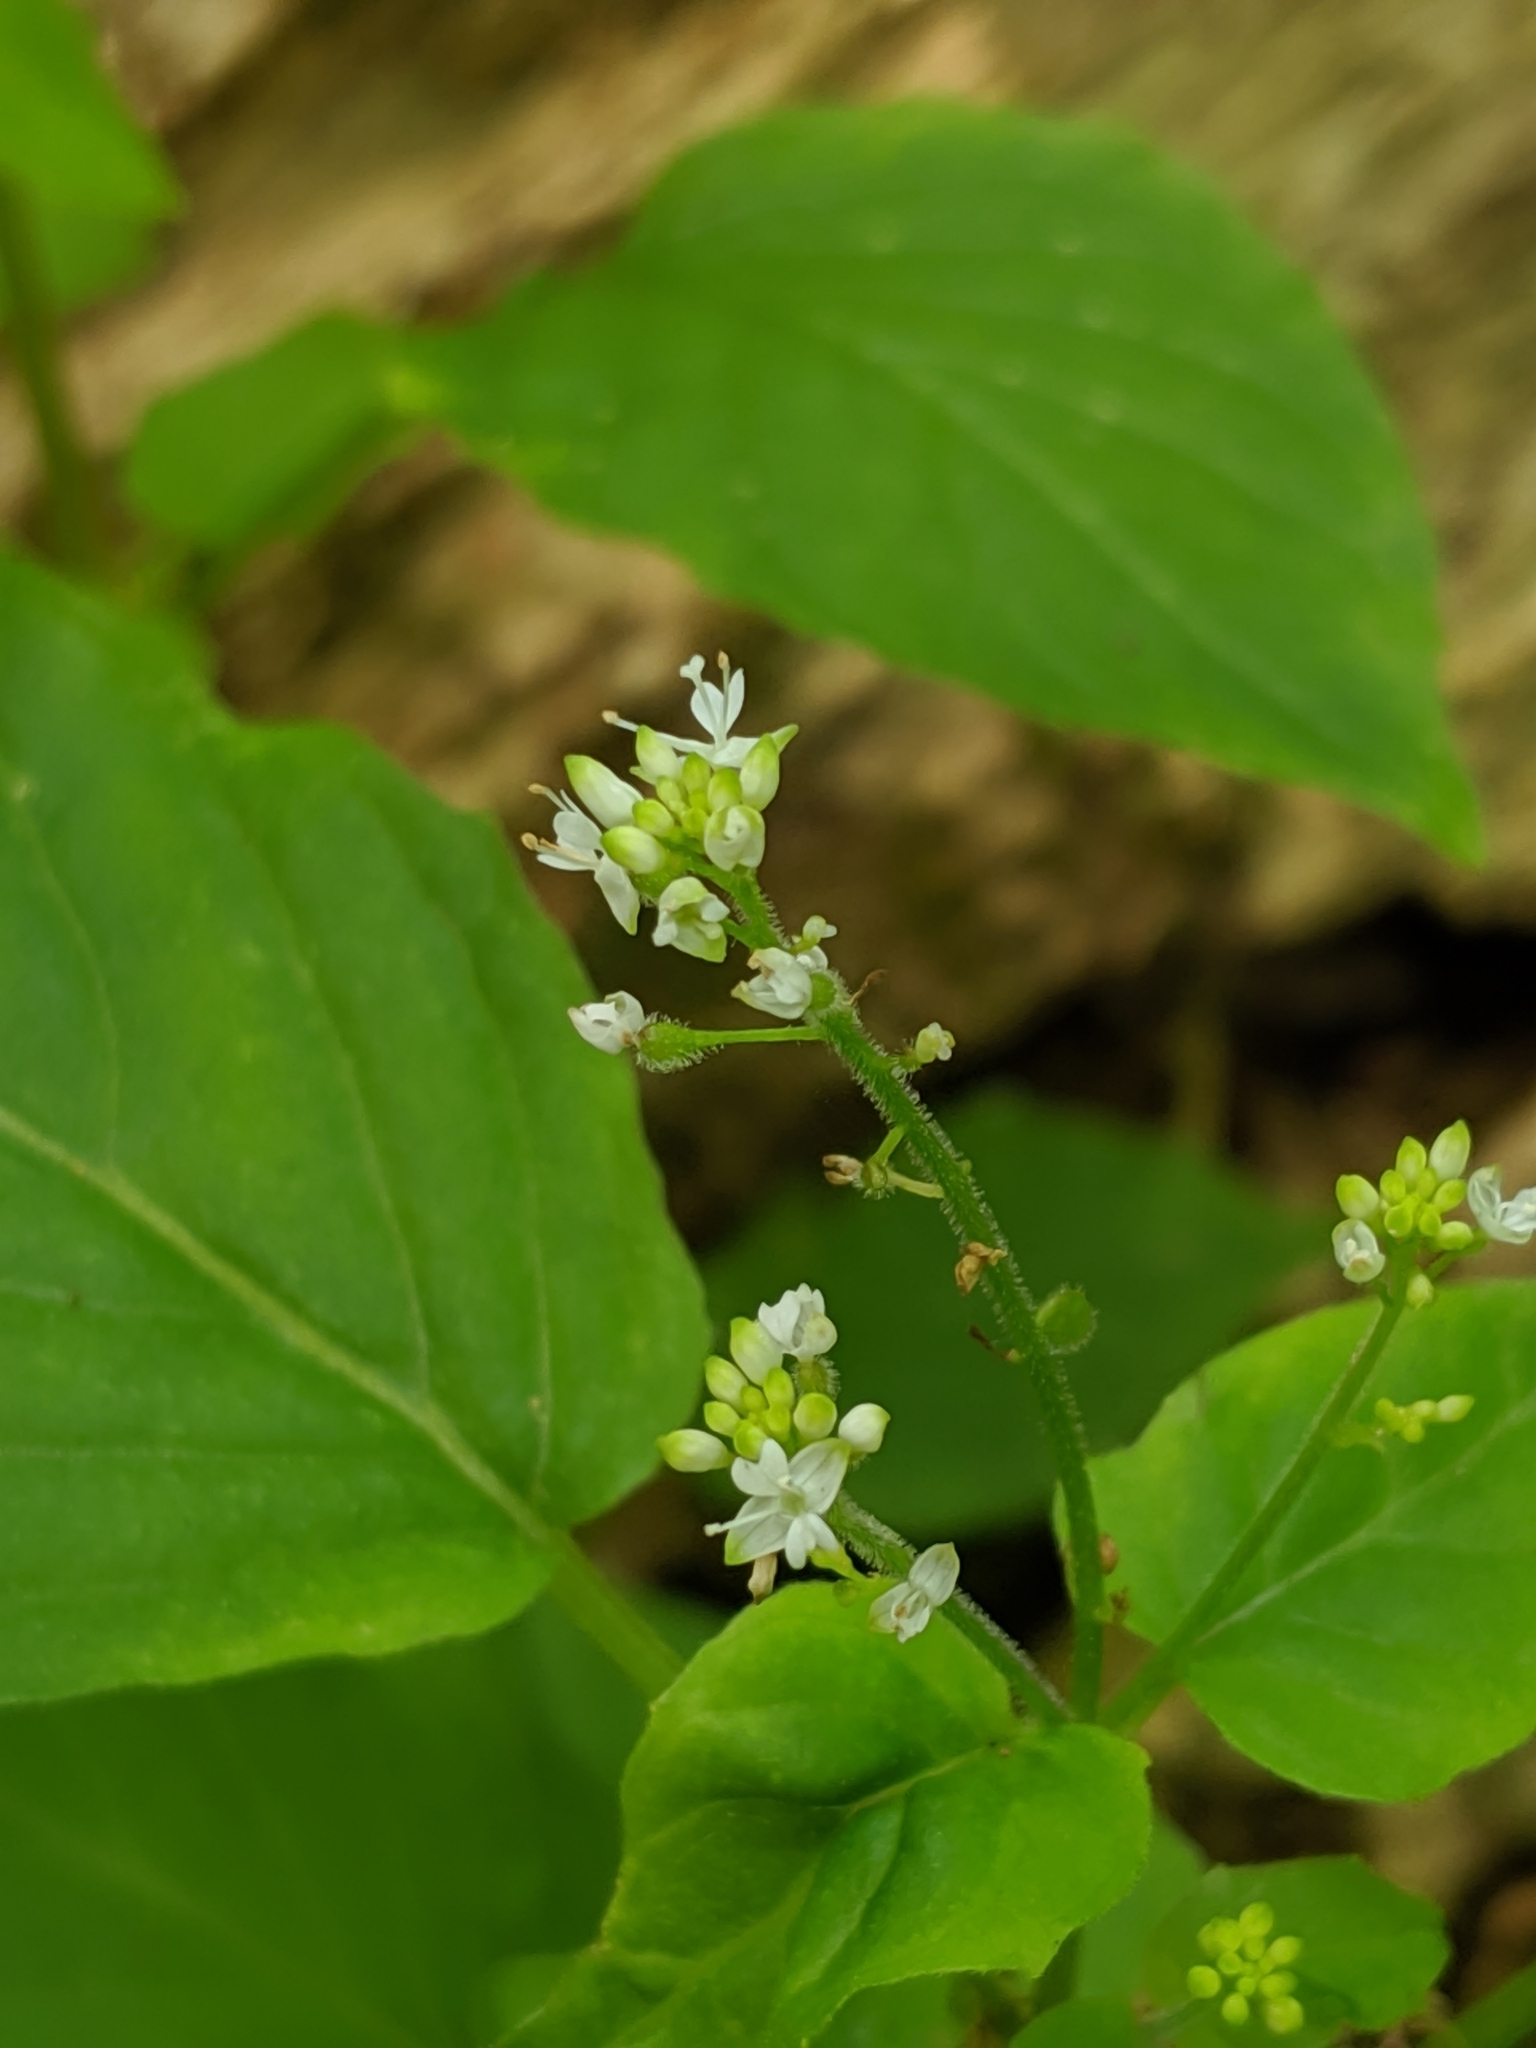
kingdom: Plantae
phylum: Tracheophyta
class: Magnoliopsida
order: Myrtales
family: Onagraceae
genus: Circaea
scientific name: Circaea alpina
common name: Alpine enchanter's-nightshade
